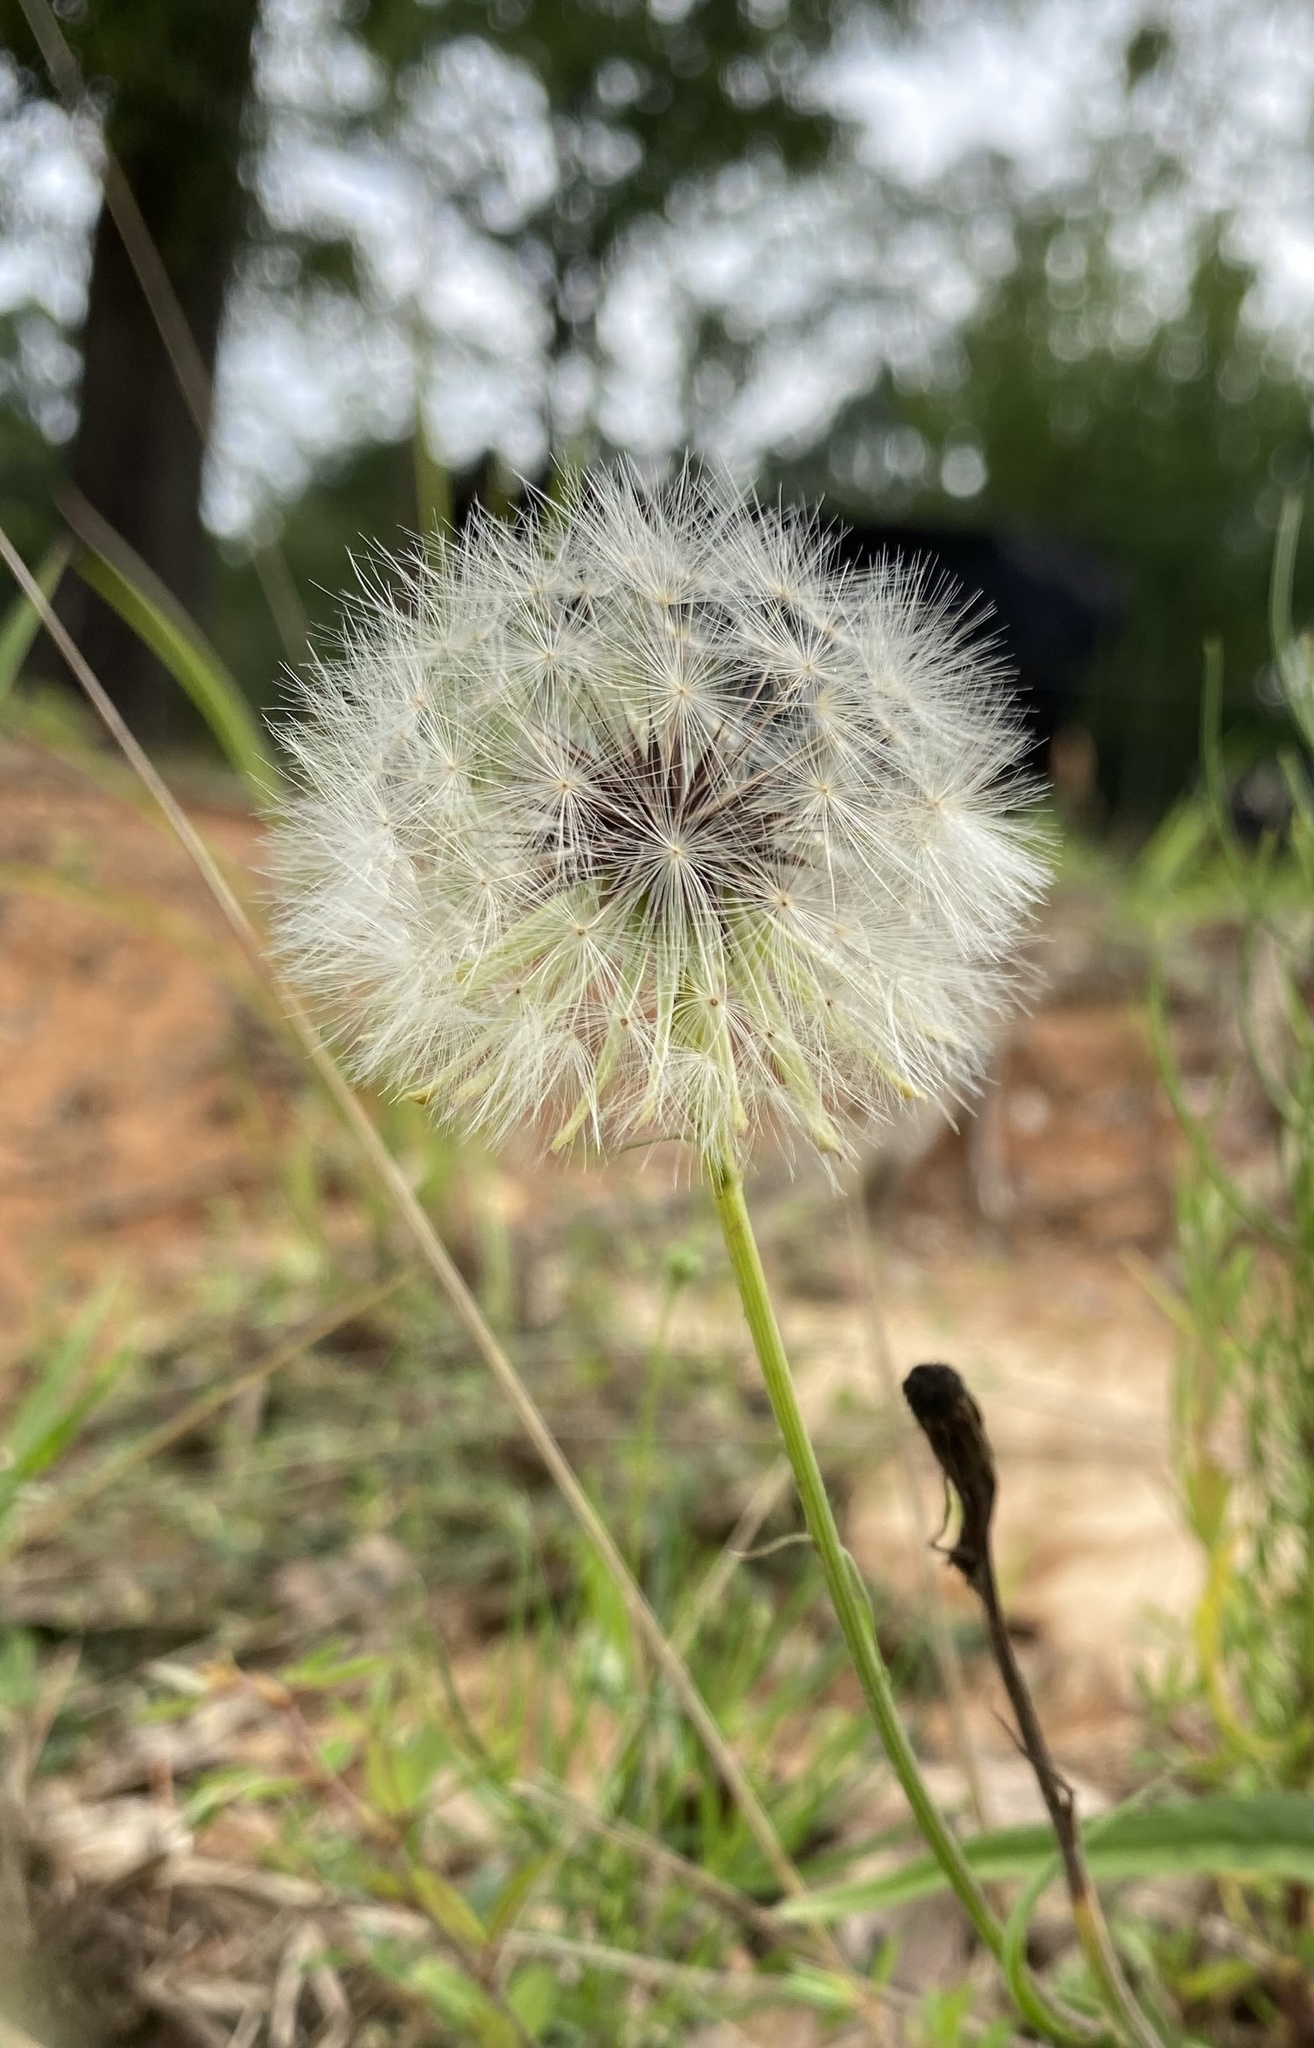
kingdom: Plantae
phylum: Tracheophyta
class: Magnoliopsida
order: Asterales
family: Asteraceae
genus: Pyrrhopappus
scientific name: Pyrrhopappus carolinianus
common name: Carolina desert-chicory
